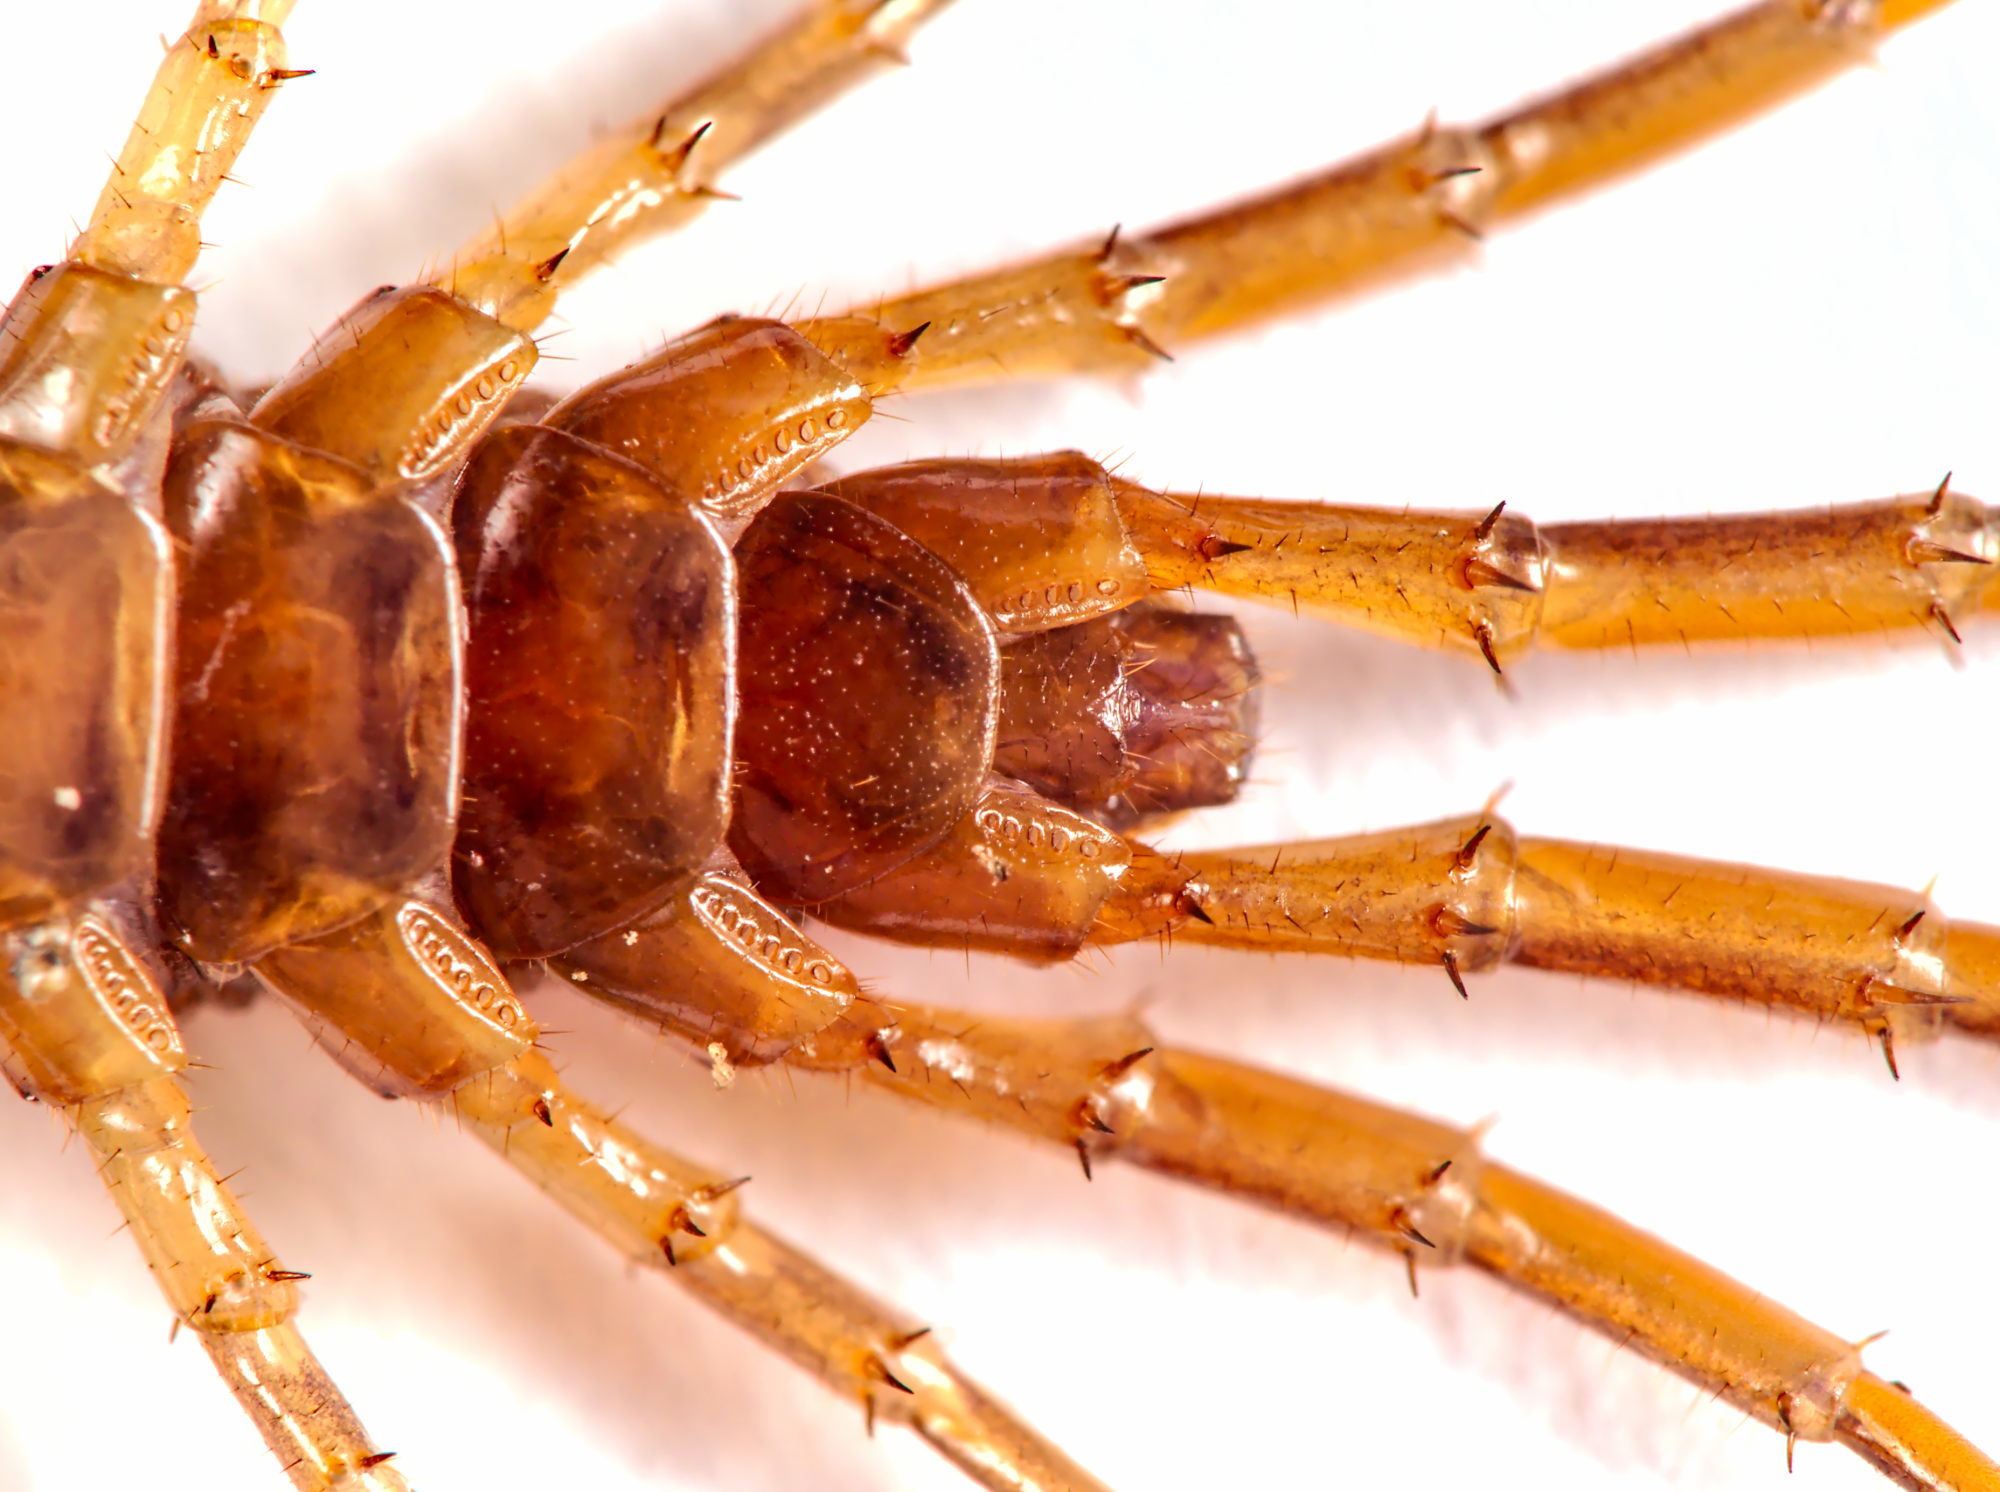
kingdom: Animalia
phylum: Arthropoda
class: Chilopoda
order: Lithobiomorpha
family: Lithobiidae
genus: Lithobius
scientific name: Lithobius forficatus
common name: Centipede
